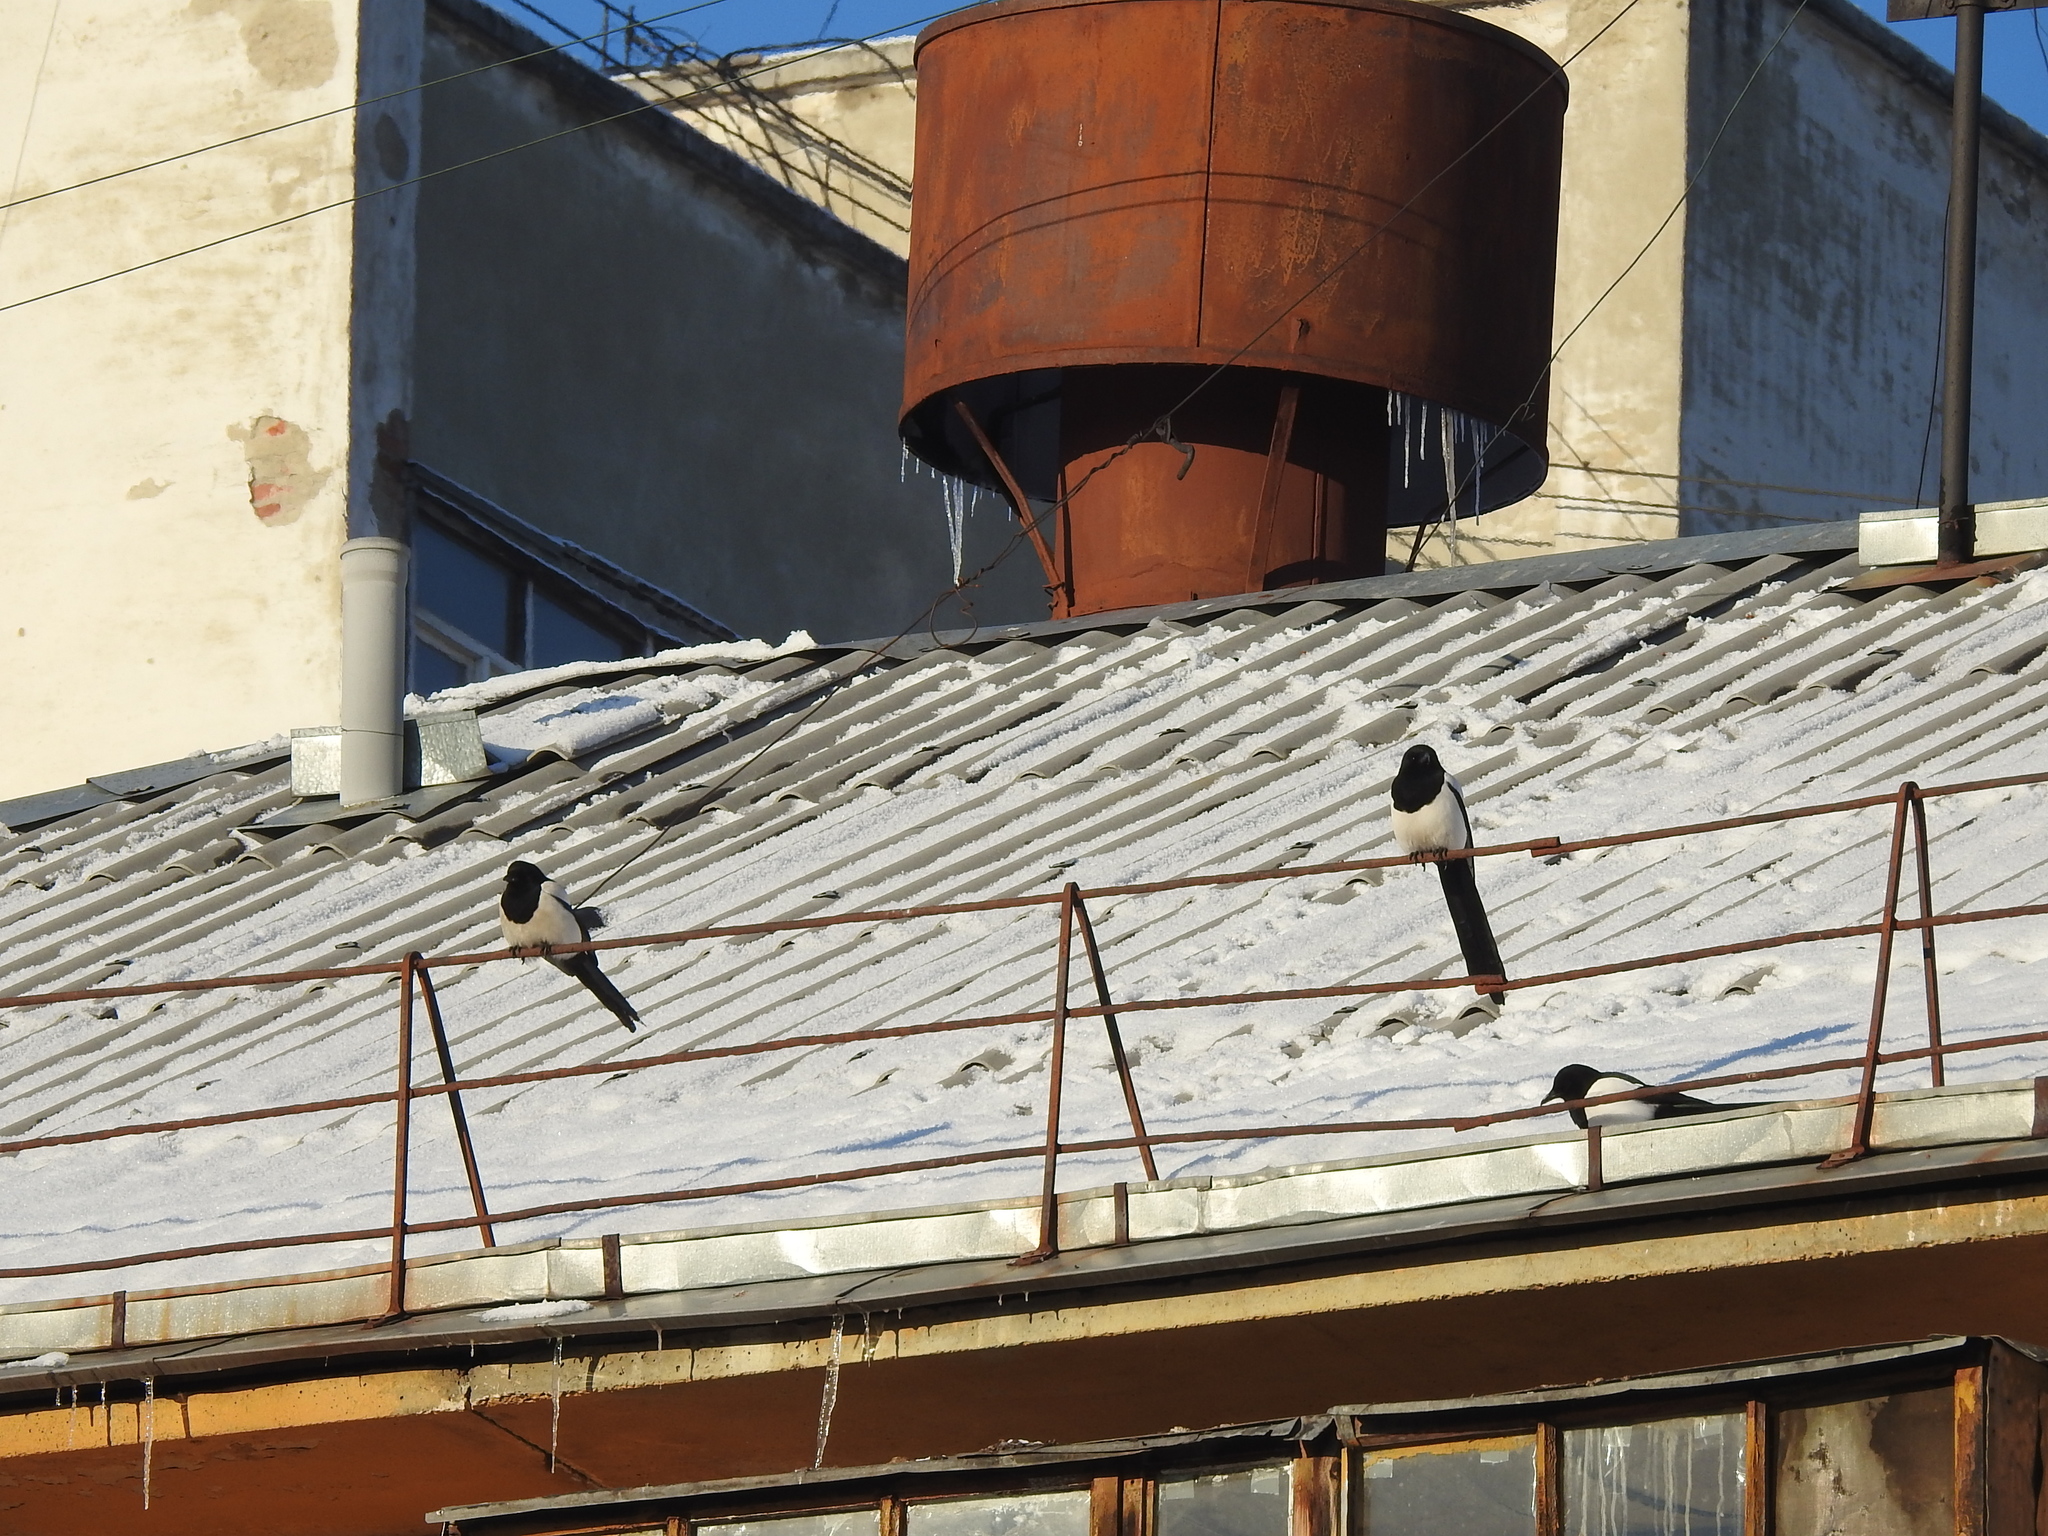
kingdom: Animalia
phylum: Chordata
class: Aves
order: Passeriformes
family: Corvidae
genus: Pica
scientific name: Pica pica
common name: Eurasian magpie
